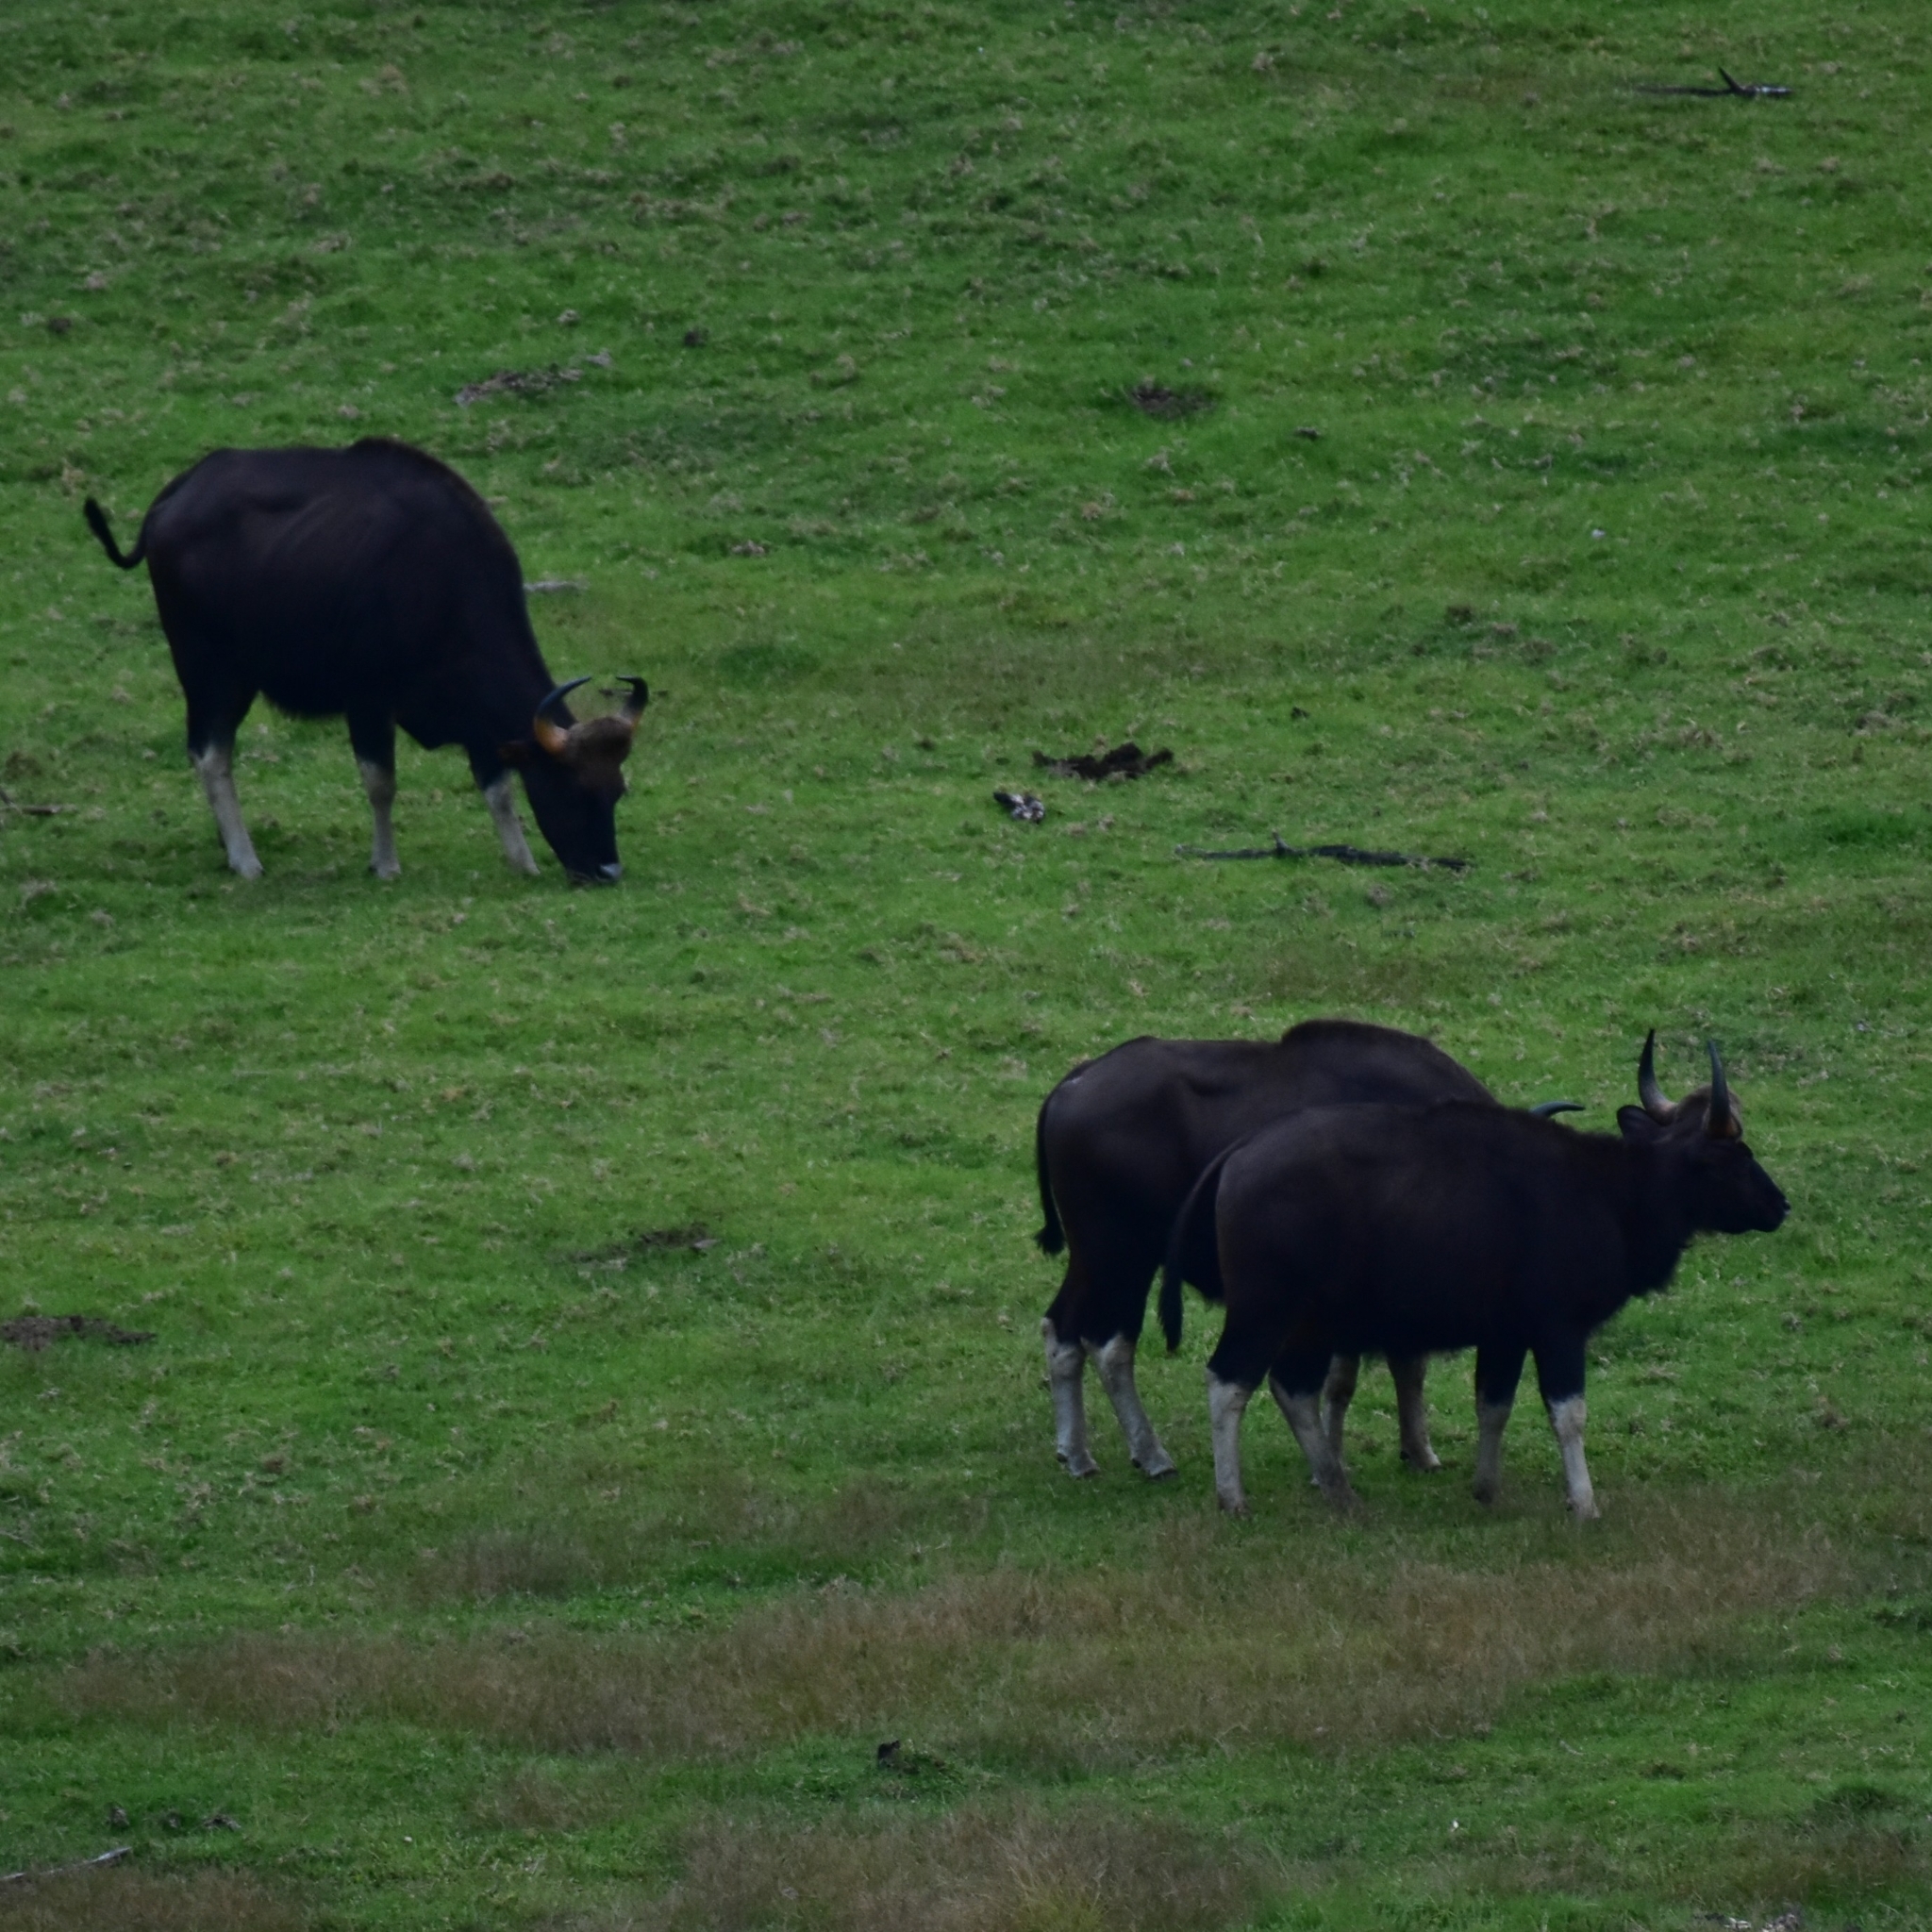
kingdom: Animalia
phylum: Chordata
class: Mammalia
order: Artiodactyla
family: Bovidae
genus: Bos
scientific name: Bos frontalis
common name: Gaur
